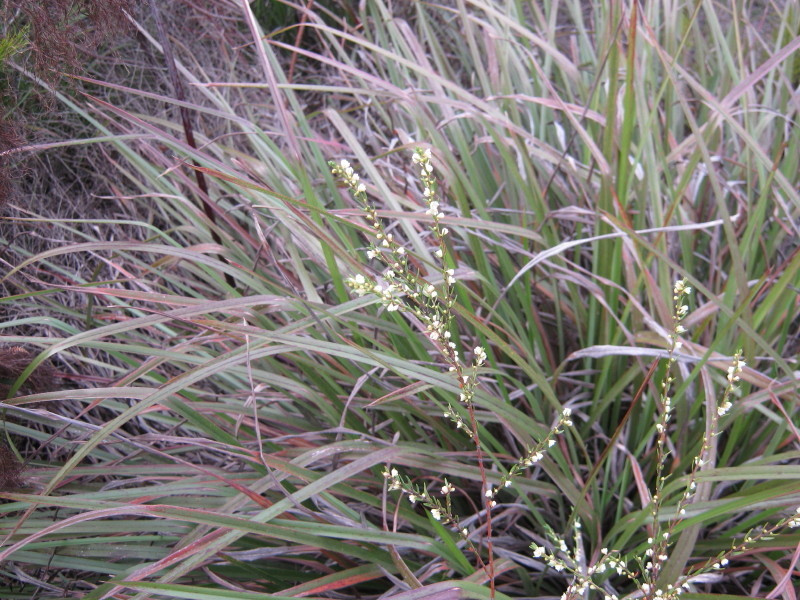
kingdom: Plantae
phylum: Tracheophyta
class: Magnoliopsida
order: Malpighiales
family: Peraceae
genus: Clutia
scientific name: Clutia ericoides
